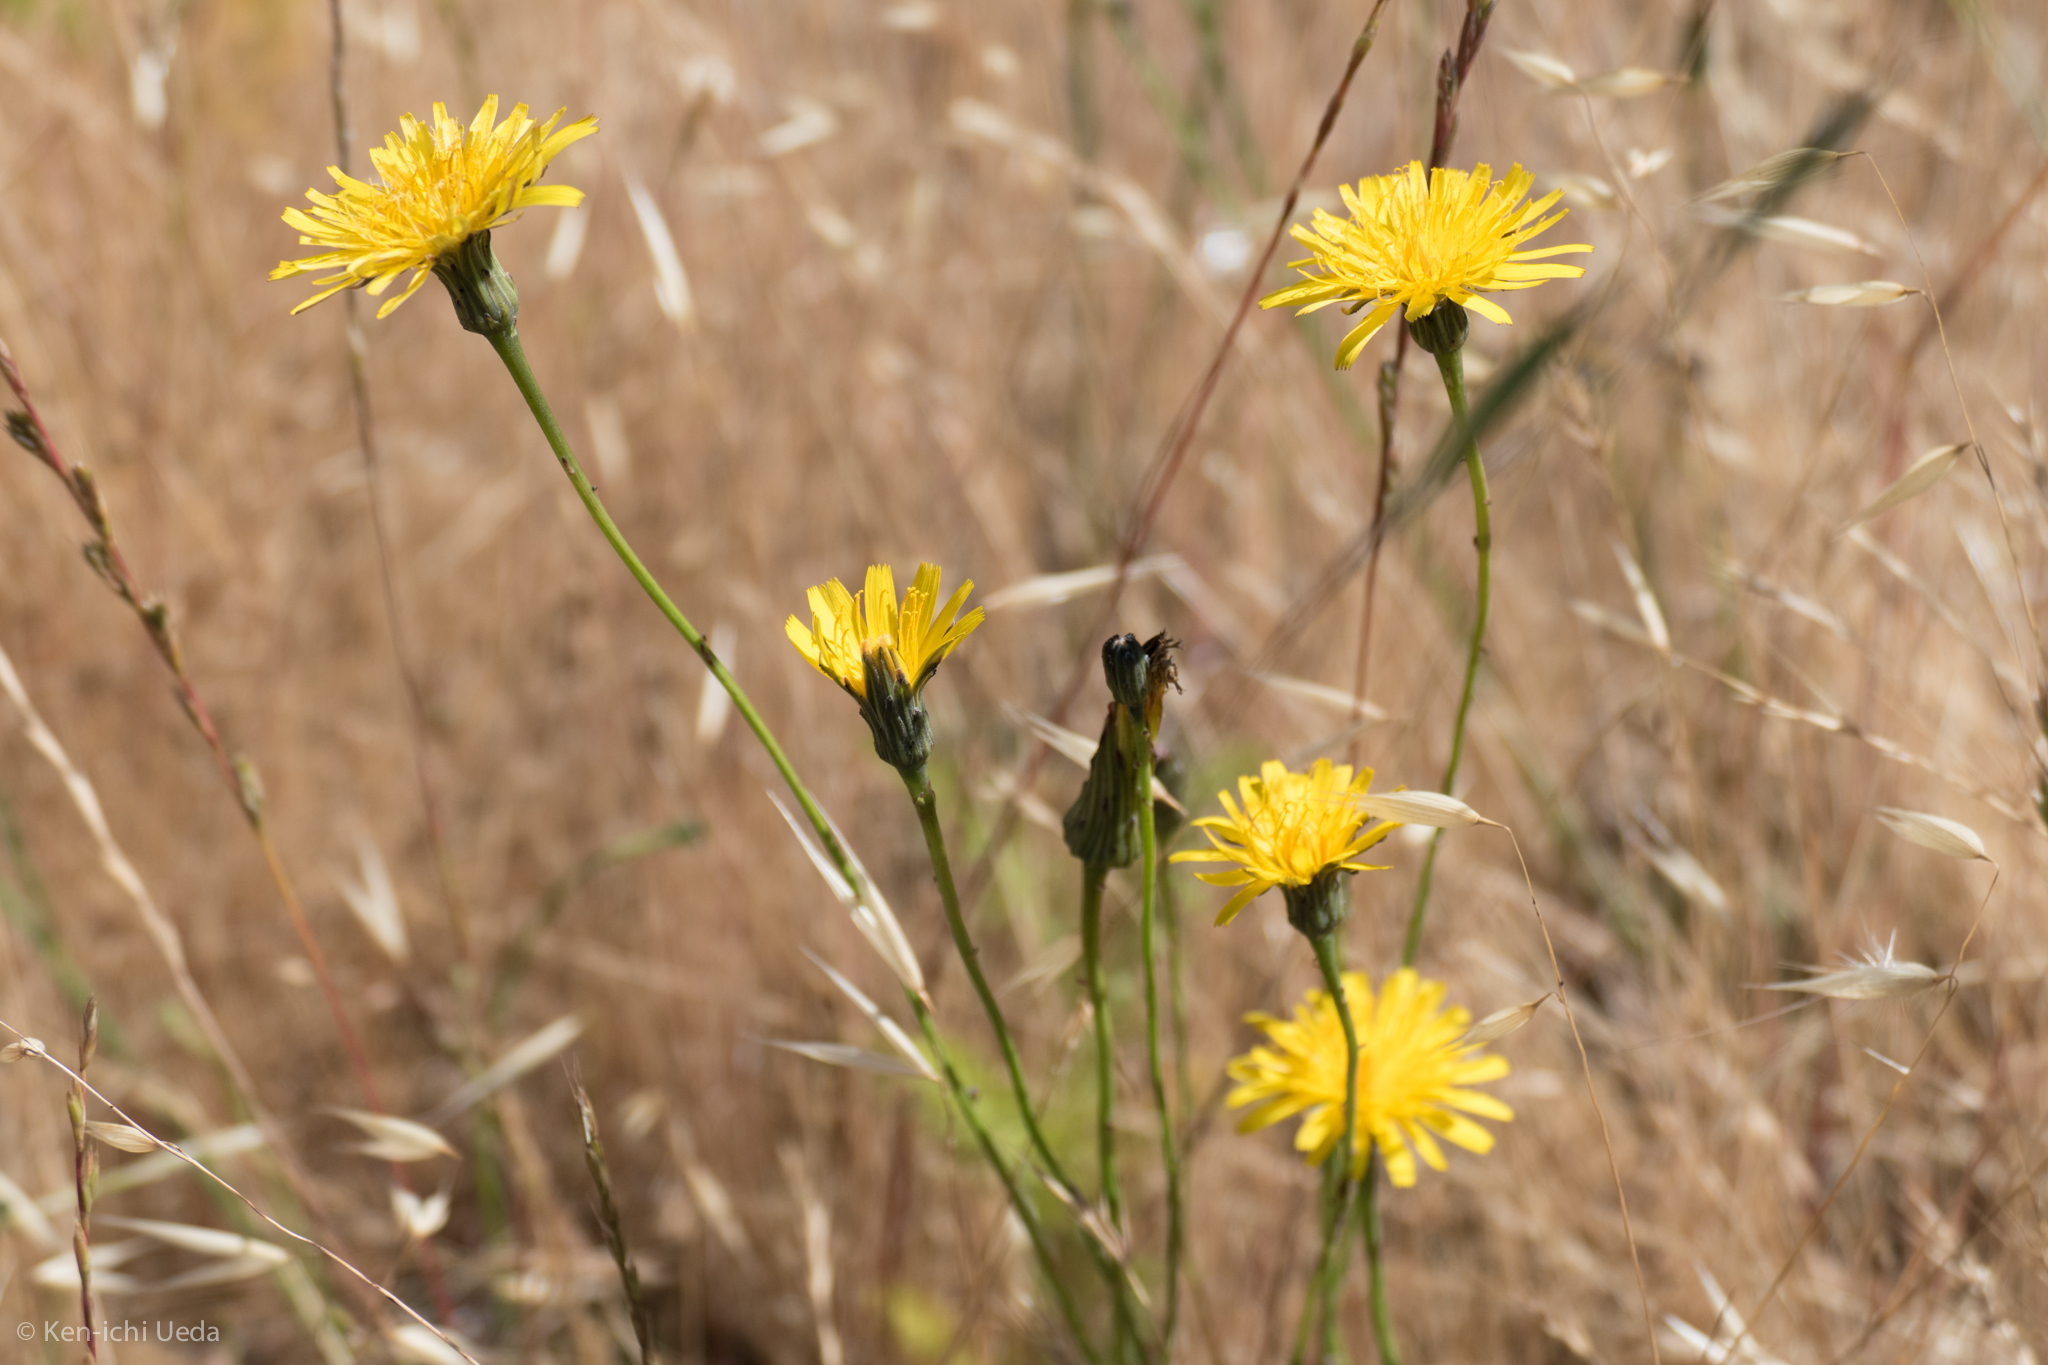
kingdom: Plantae
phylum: Tracheophyta
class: Magnoliopsida
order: Asterales
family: Asteraceae
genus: Hypochaeris
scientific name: Hypochaeris radicata
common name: Flatweed
